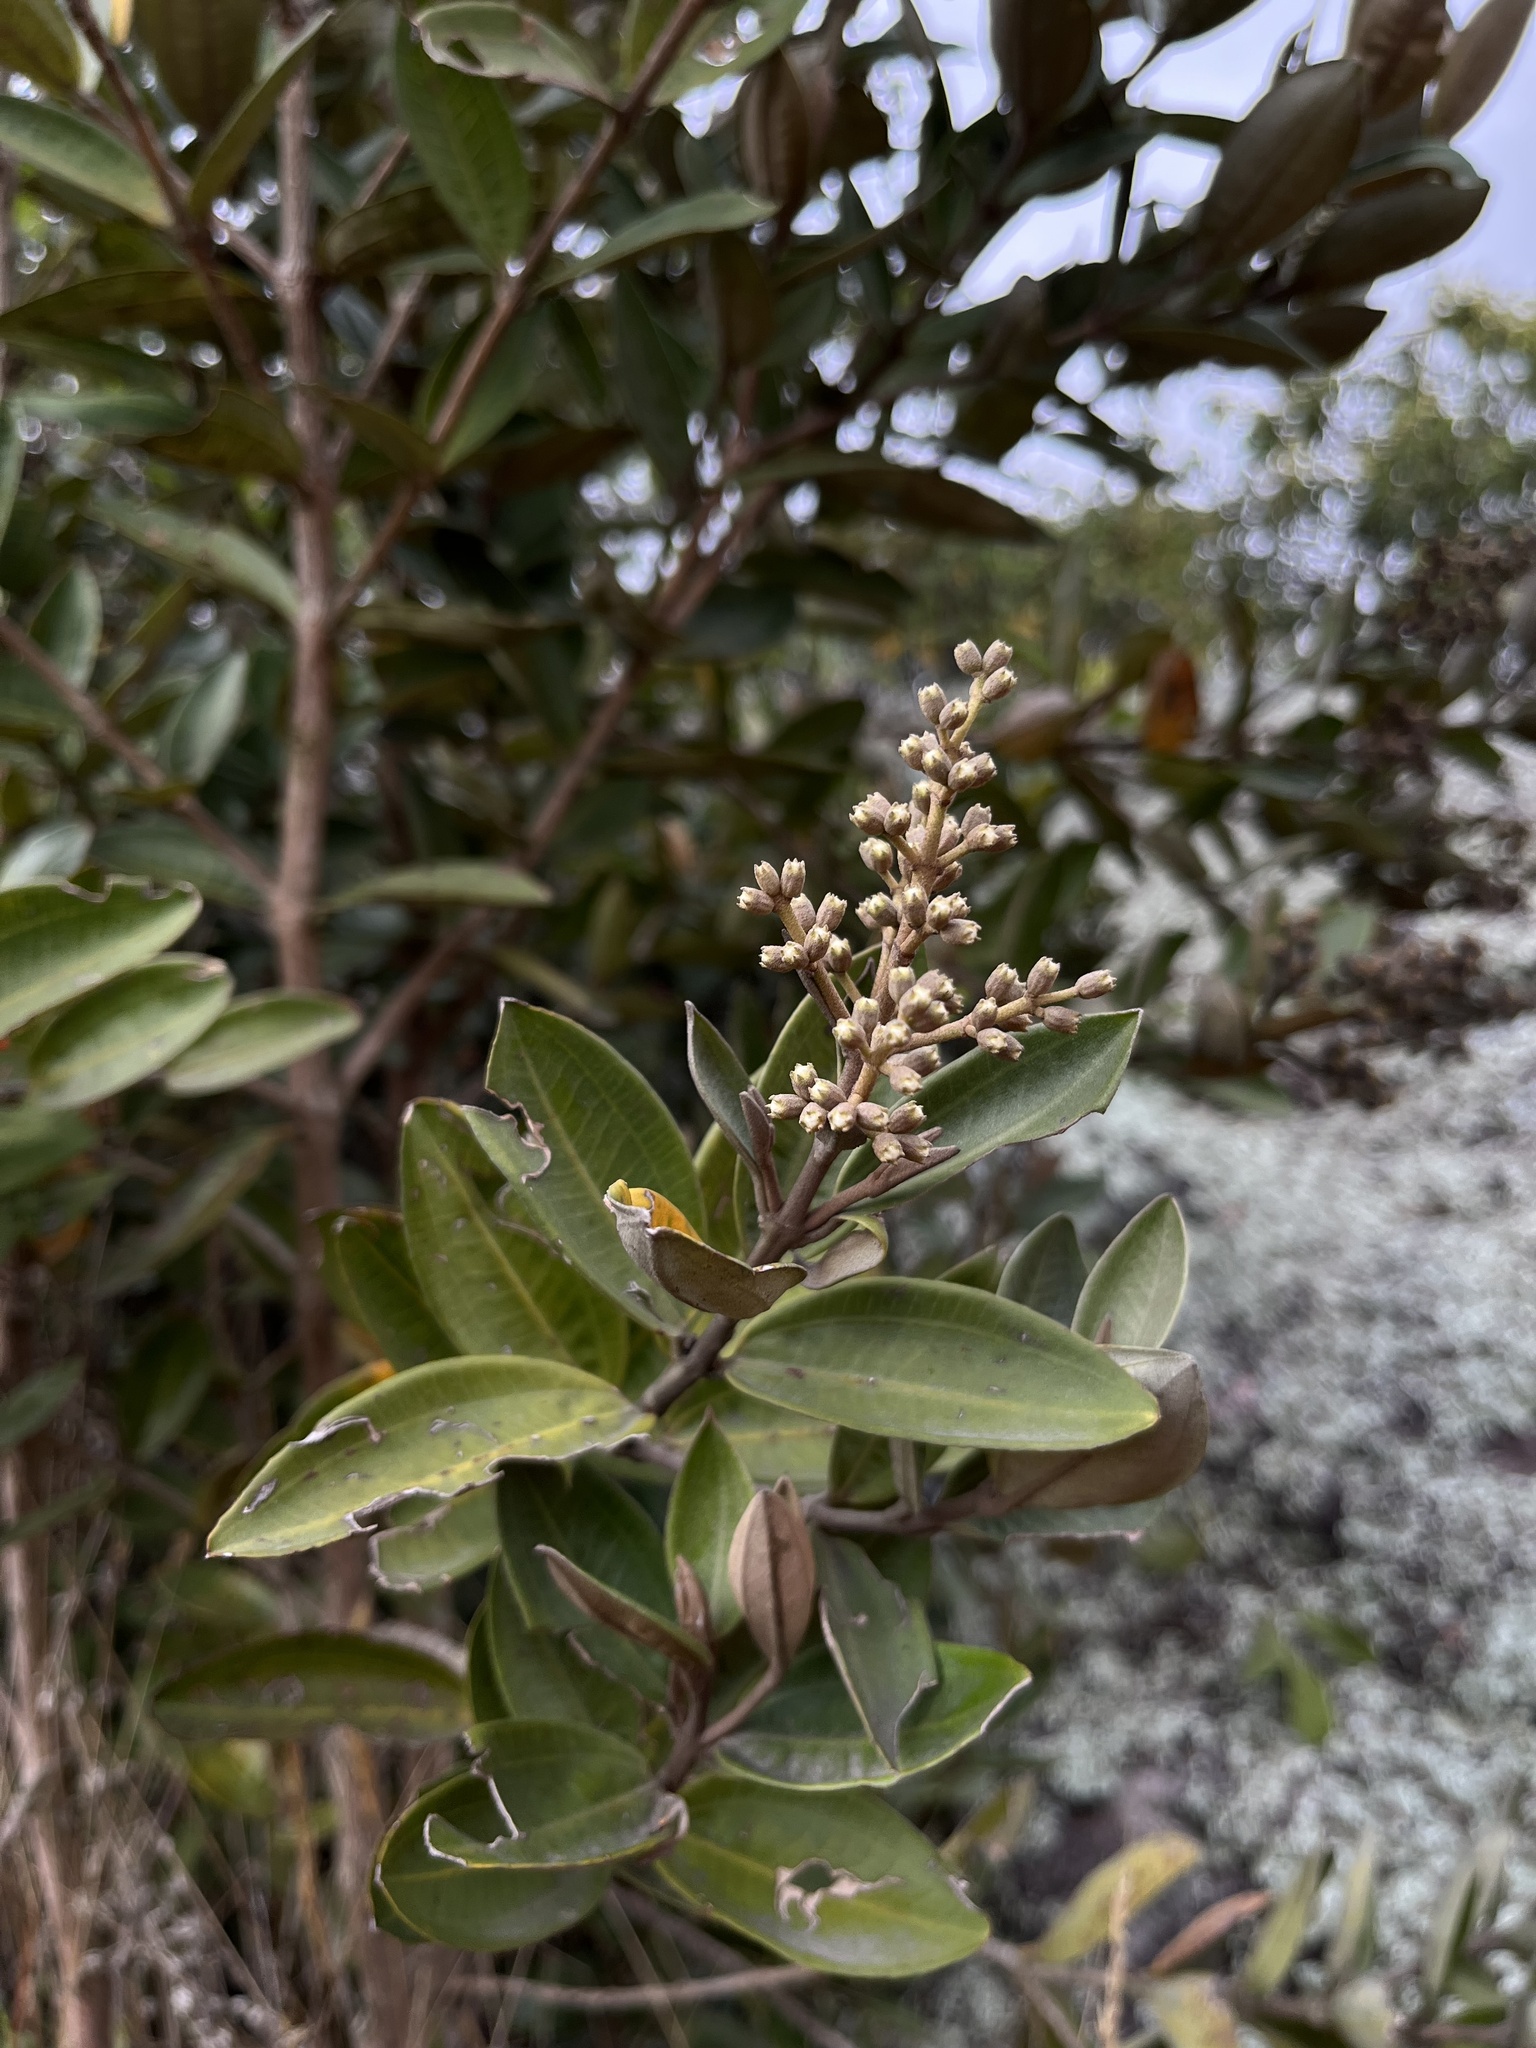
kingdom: Plantae
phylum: Tracheophyta
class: Magnoliopsida
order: Myrtales
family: Melastomataceae
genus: Miconia
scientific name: Miconia squamulosa
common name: Squamulose maya
